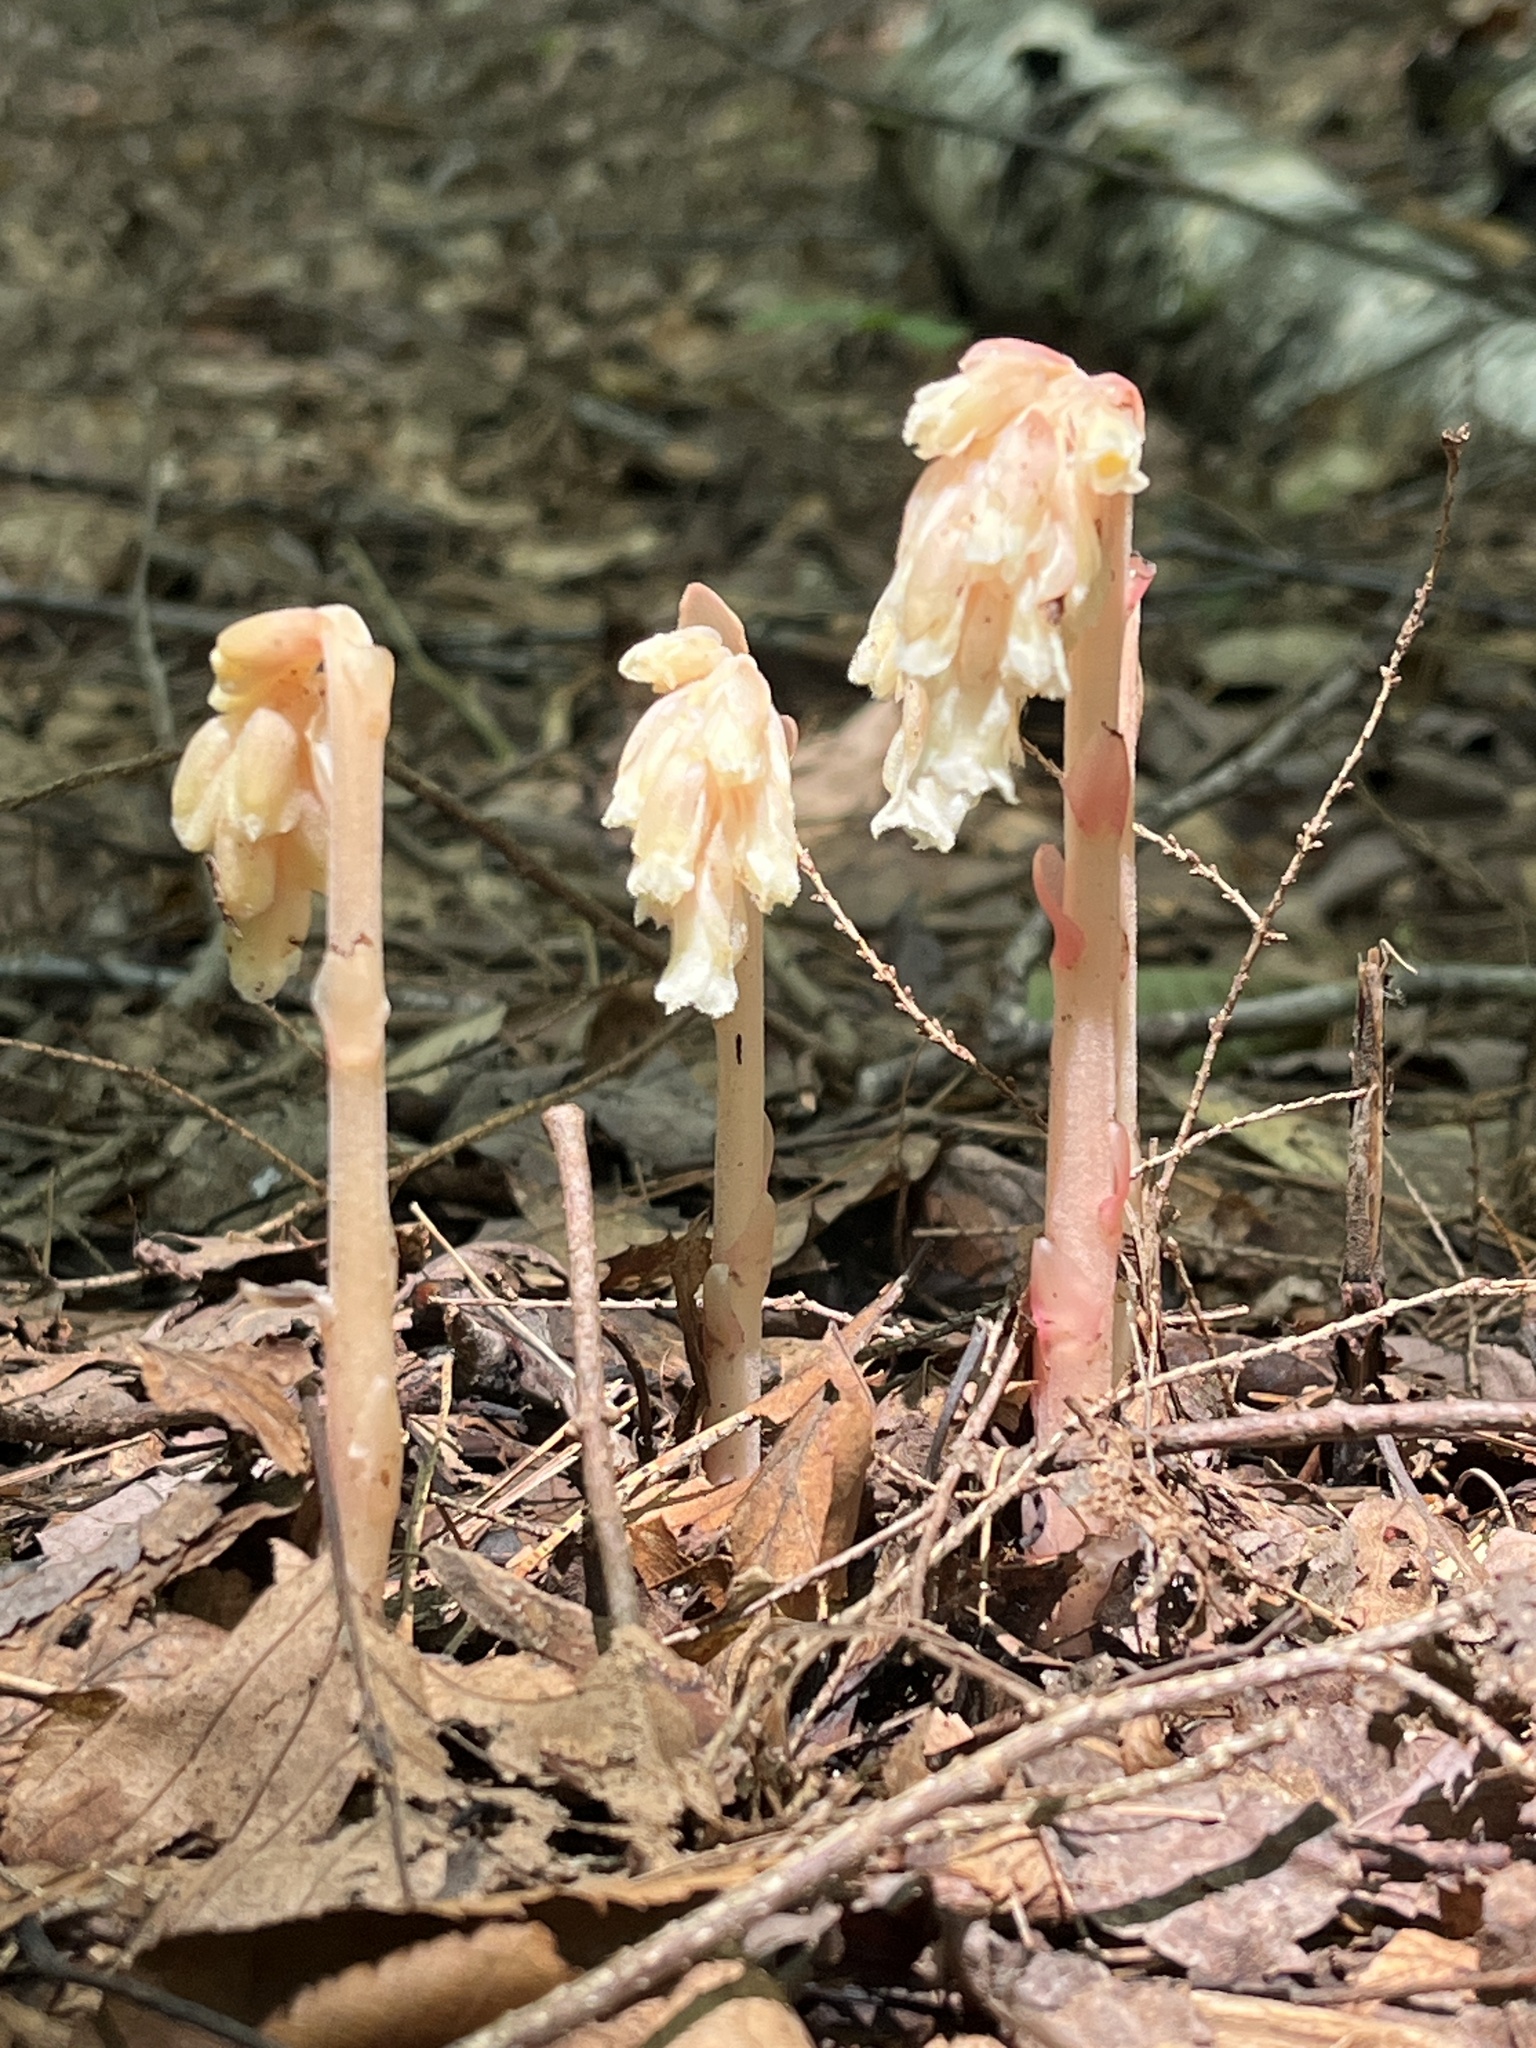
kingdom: Plantae
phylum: Tracheophyta
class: Magnoliopsida
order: Ericales
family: Ericaceae
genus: Hypopitys
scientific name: Hypopitys monotropa
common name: Yellow bird's-nest
